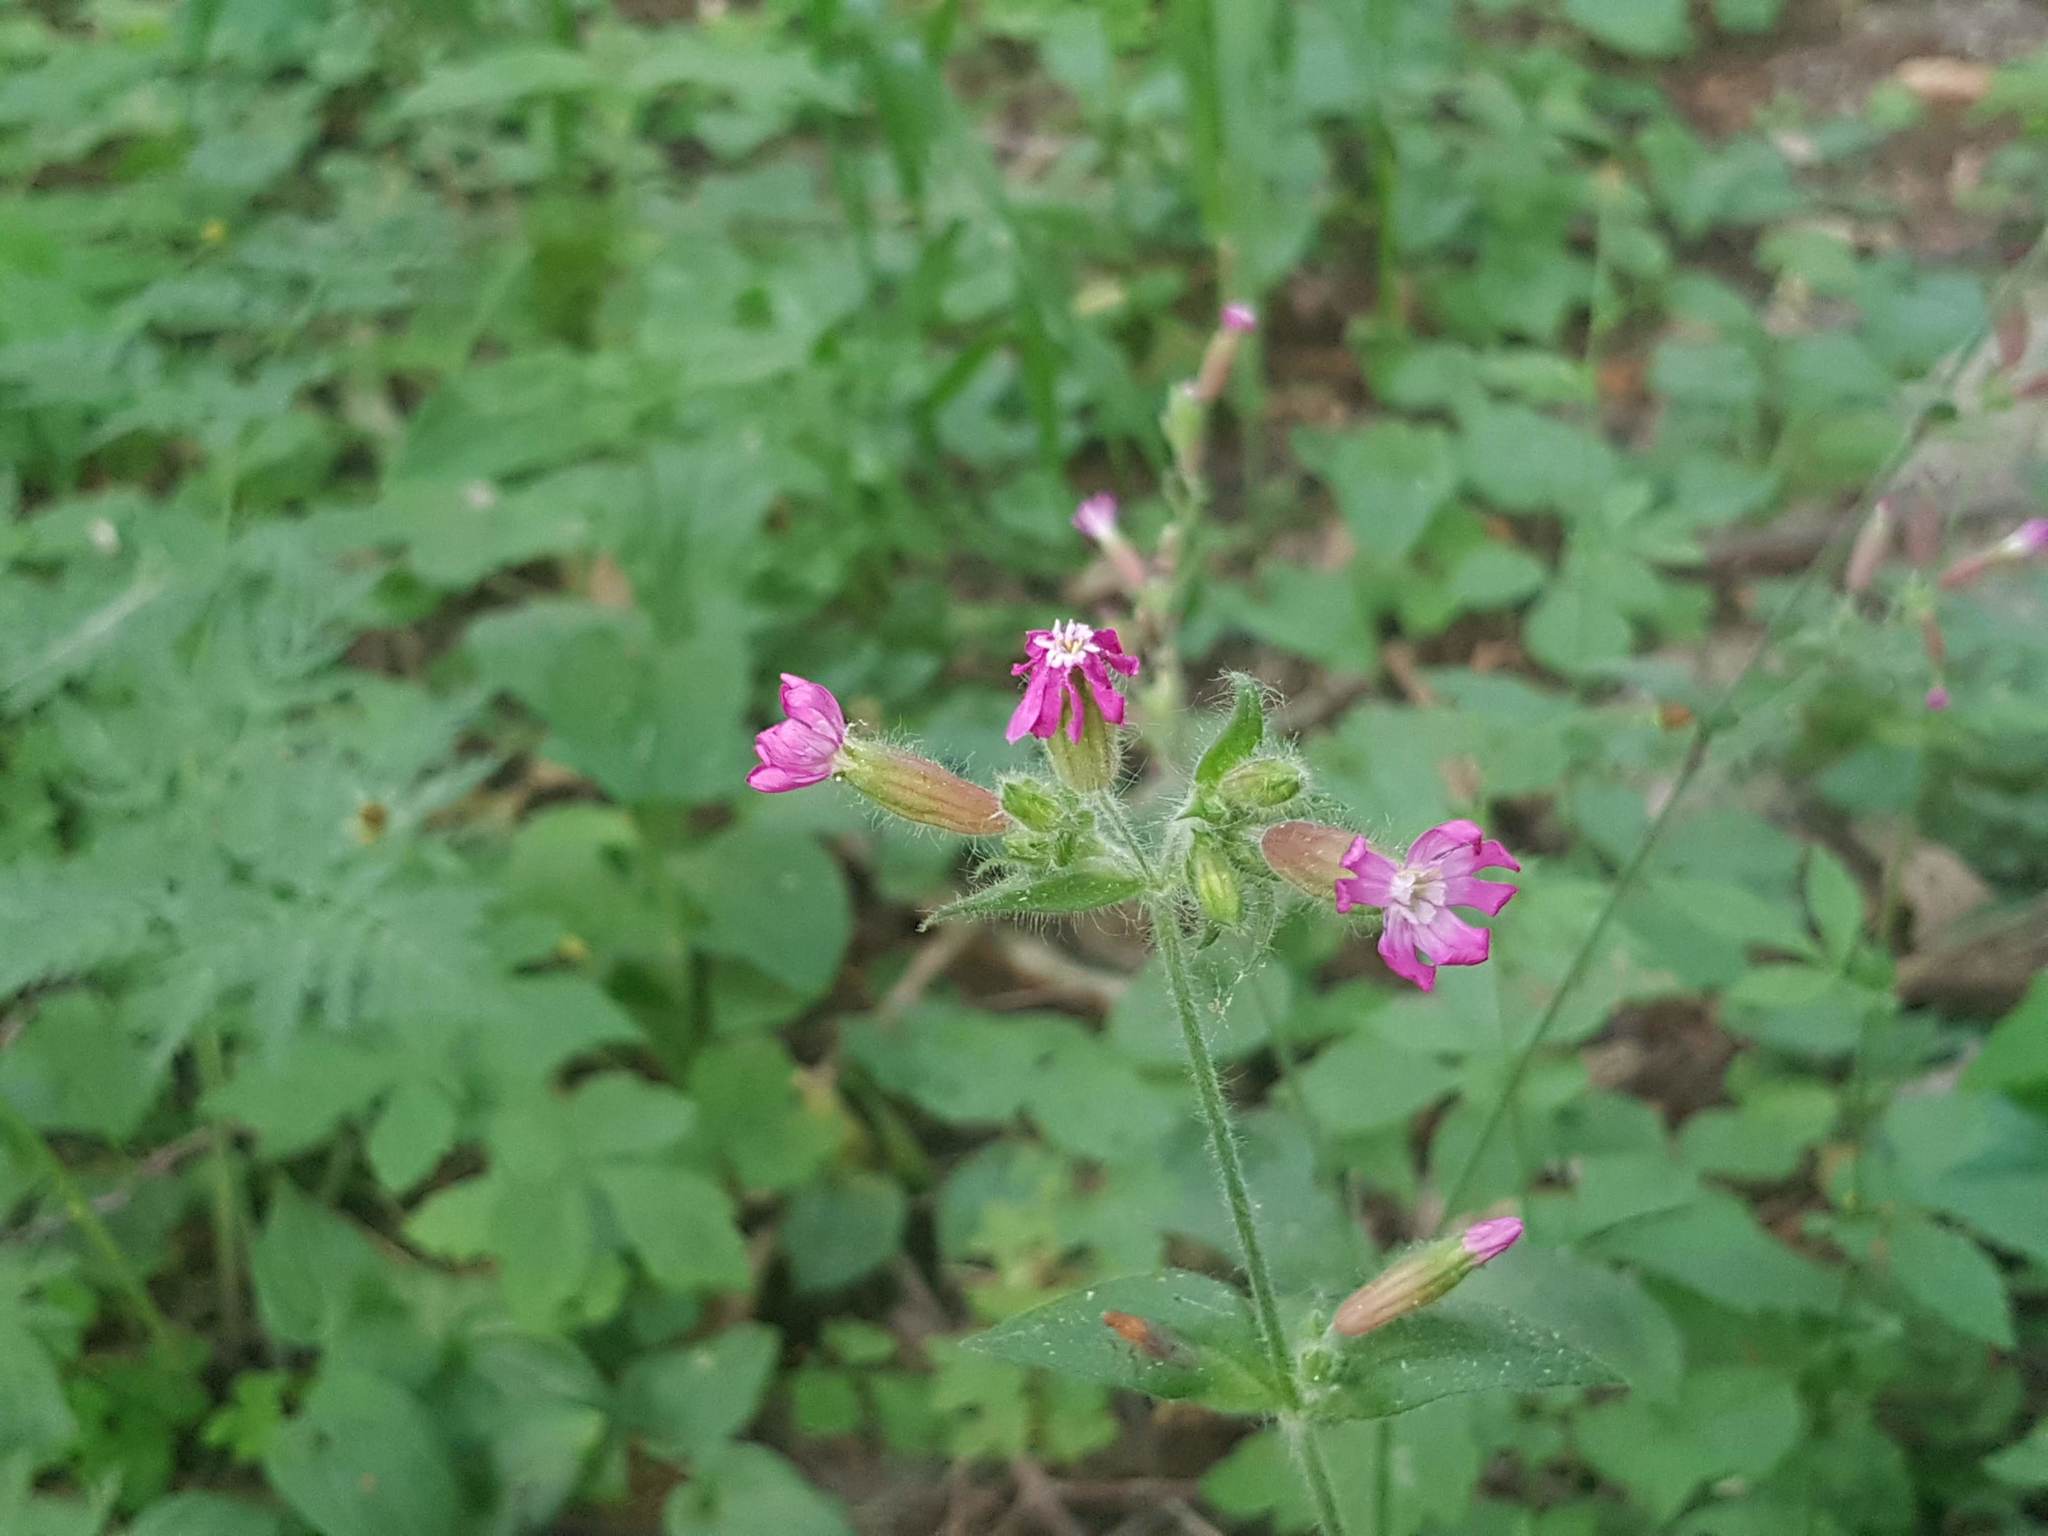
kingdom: Plantae
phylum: Tracheophyta
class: Magnoliopsida
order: Caryophyllales
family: Caryophyllaceae
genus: Silene
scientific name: Silene dioica
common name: Red campion
